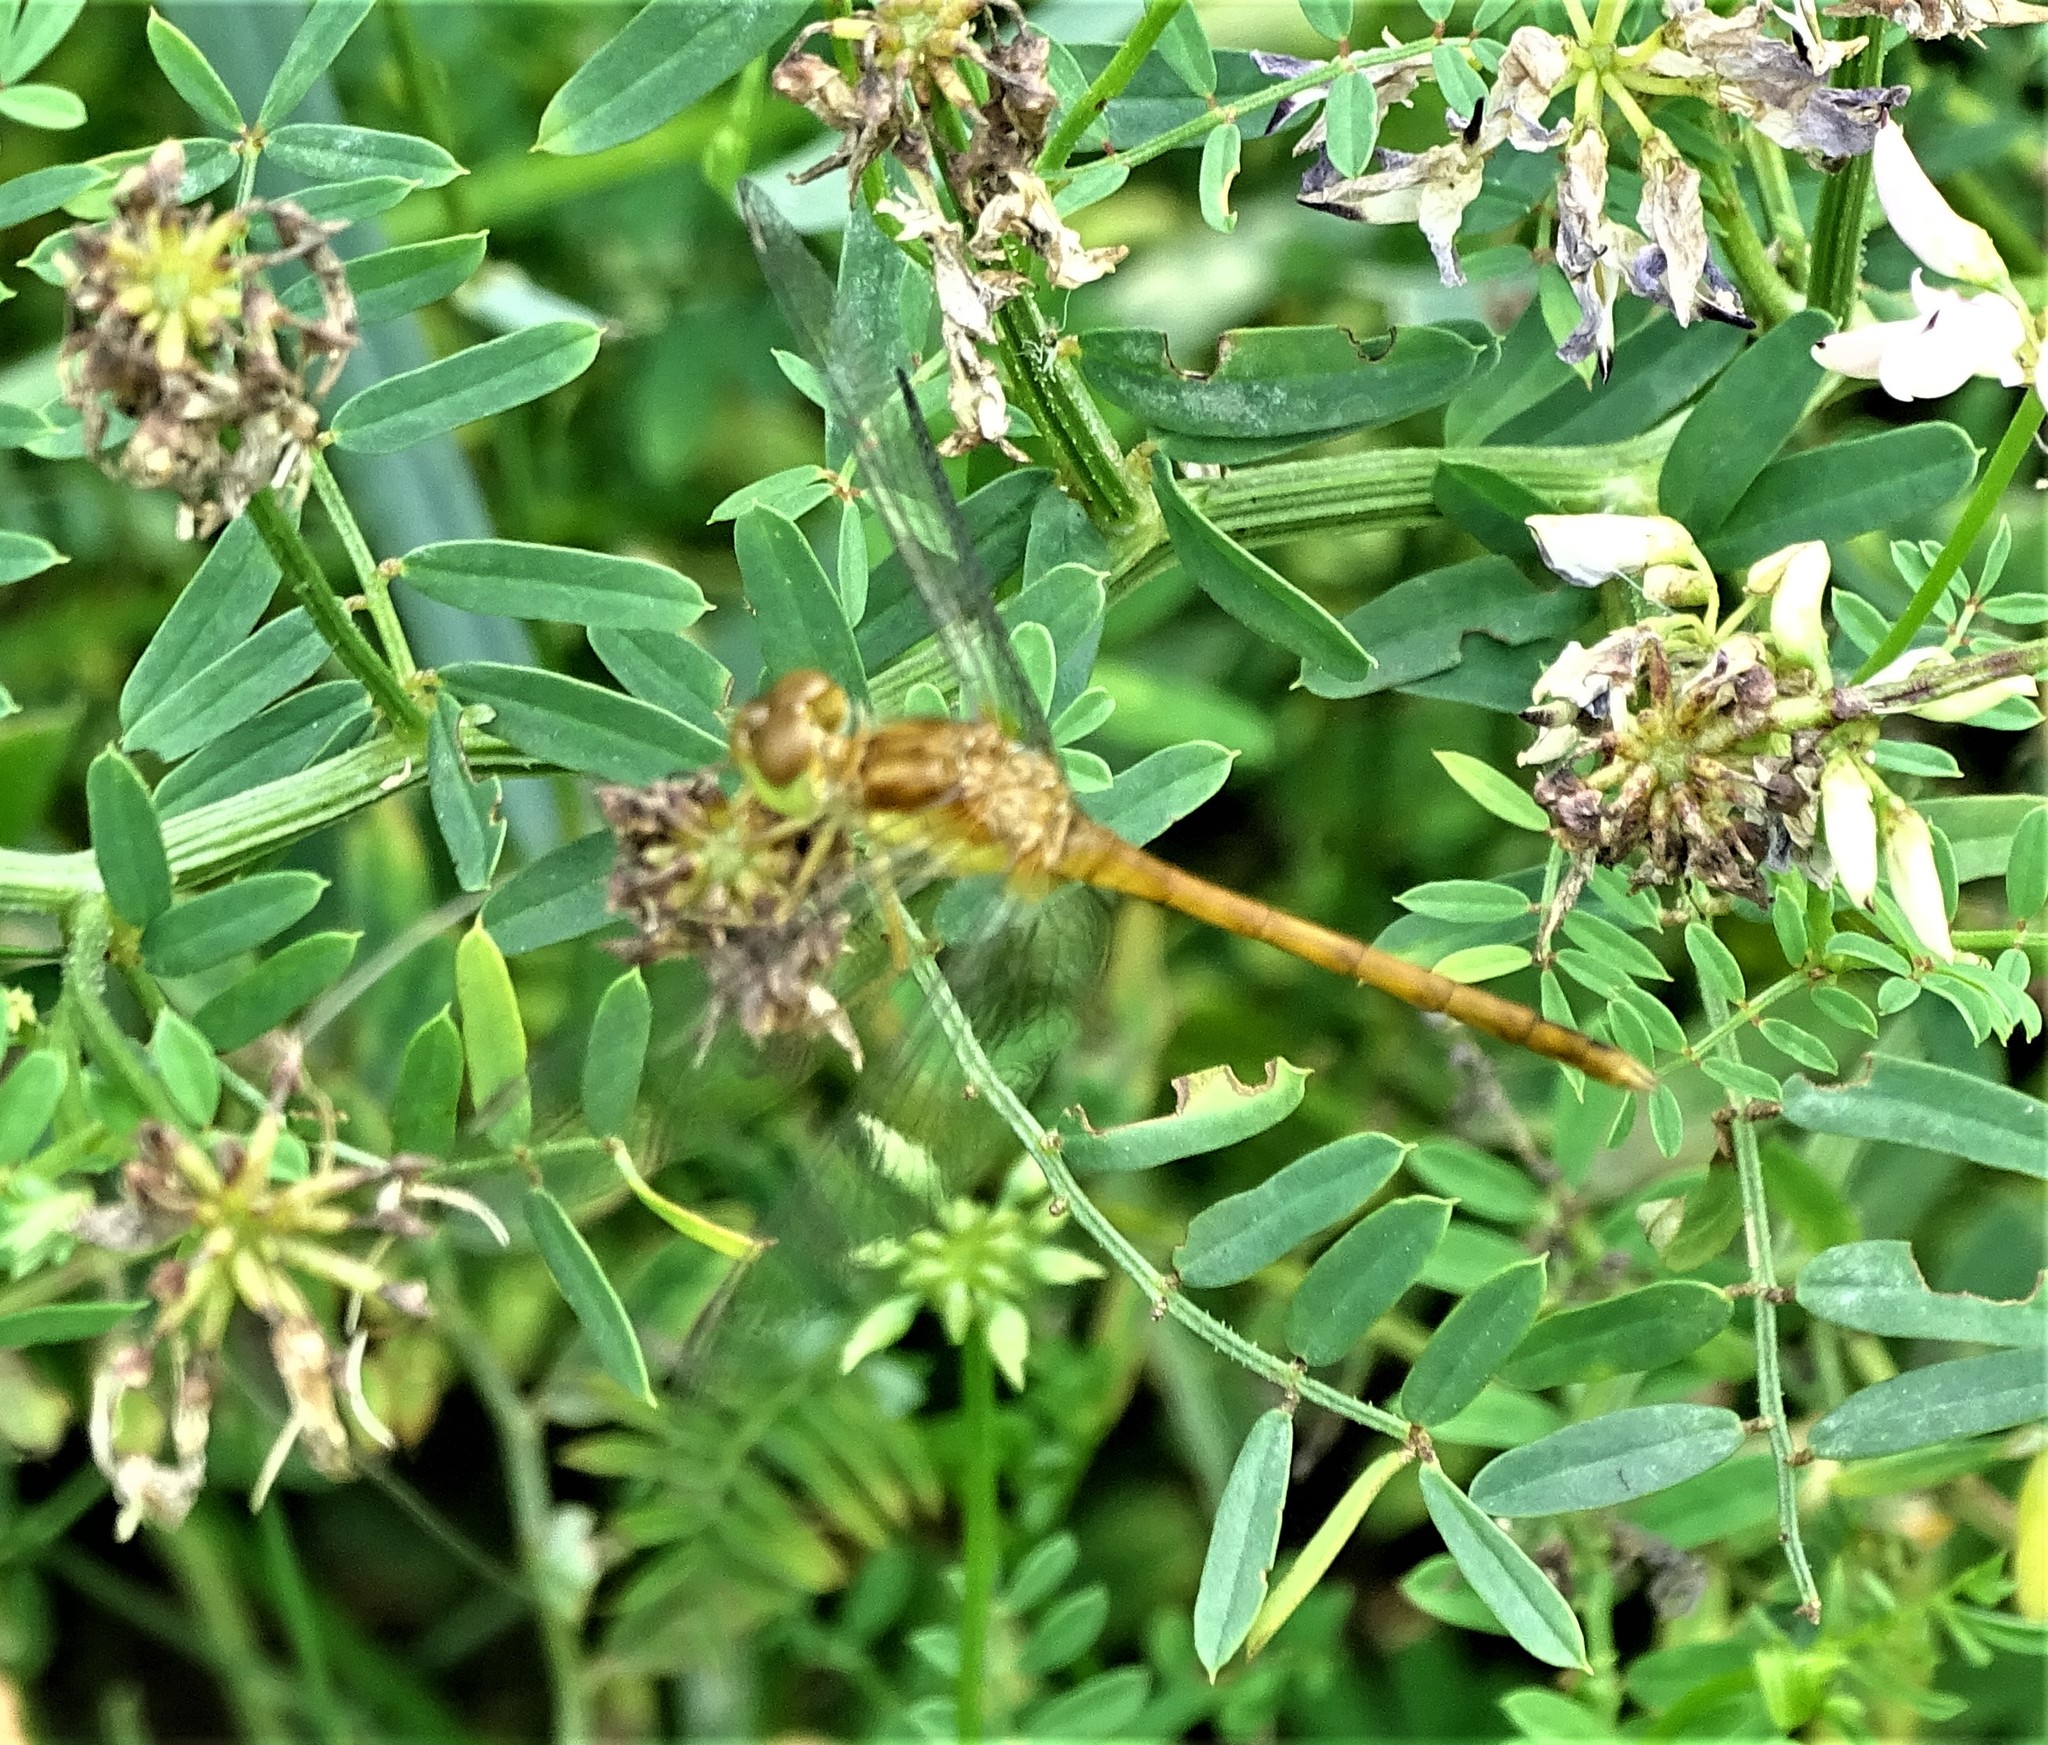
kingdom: Animalia
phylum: Arthropoda
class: Insecta
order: Odonata
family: Libellulidae
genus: Sympetrum
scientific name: Sympetrum vicinum
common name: Autumn meadowhawk
